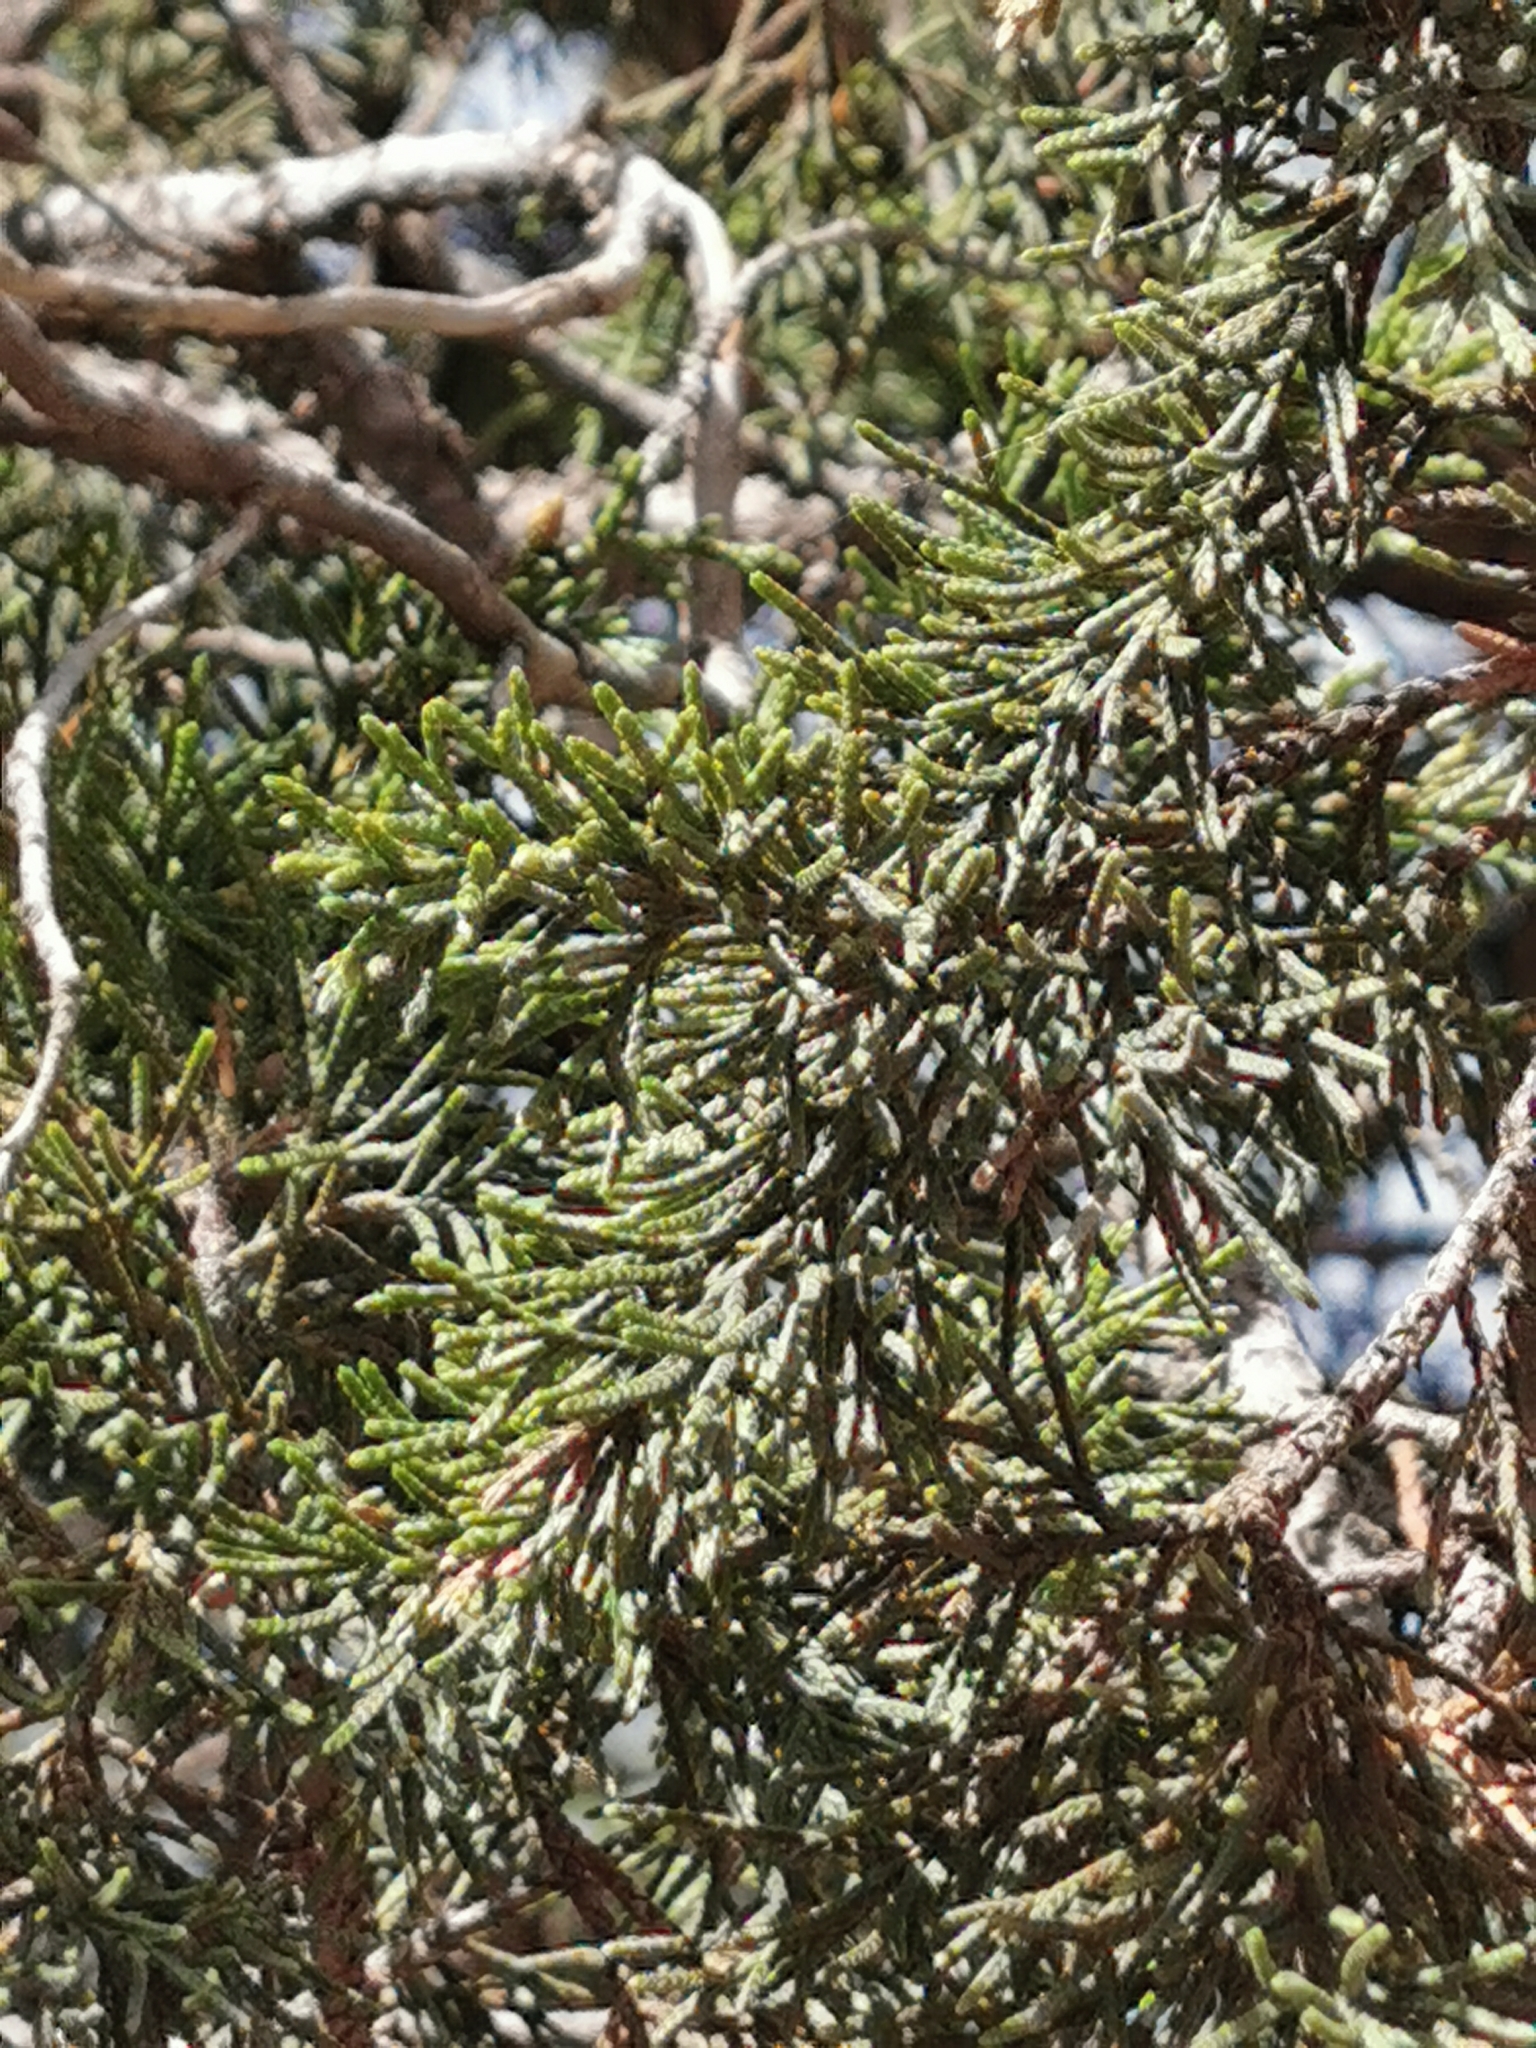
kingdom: Plantae
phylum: Tracheophyta
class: Pinopsida
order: Pinales
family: Cupressaceae
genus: Juniperus
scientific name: Juniperus deppeana
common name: Alligator juniper
